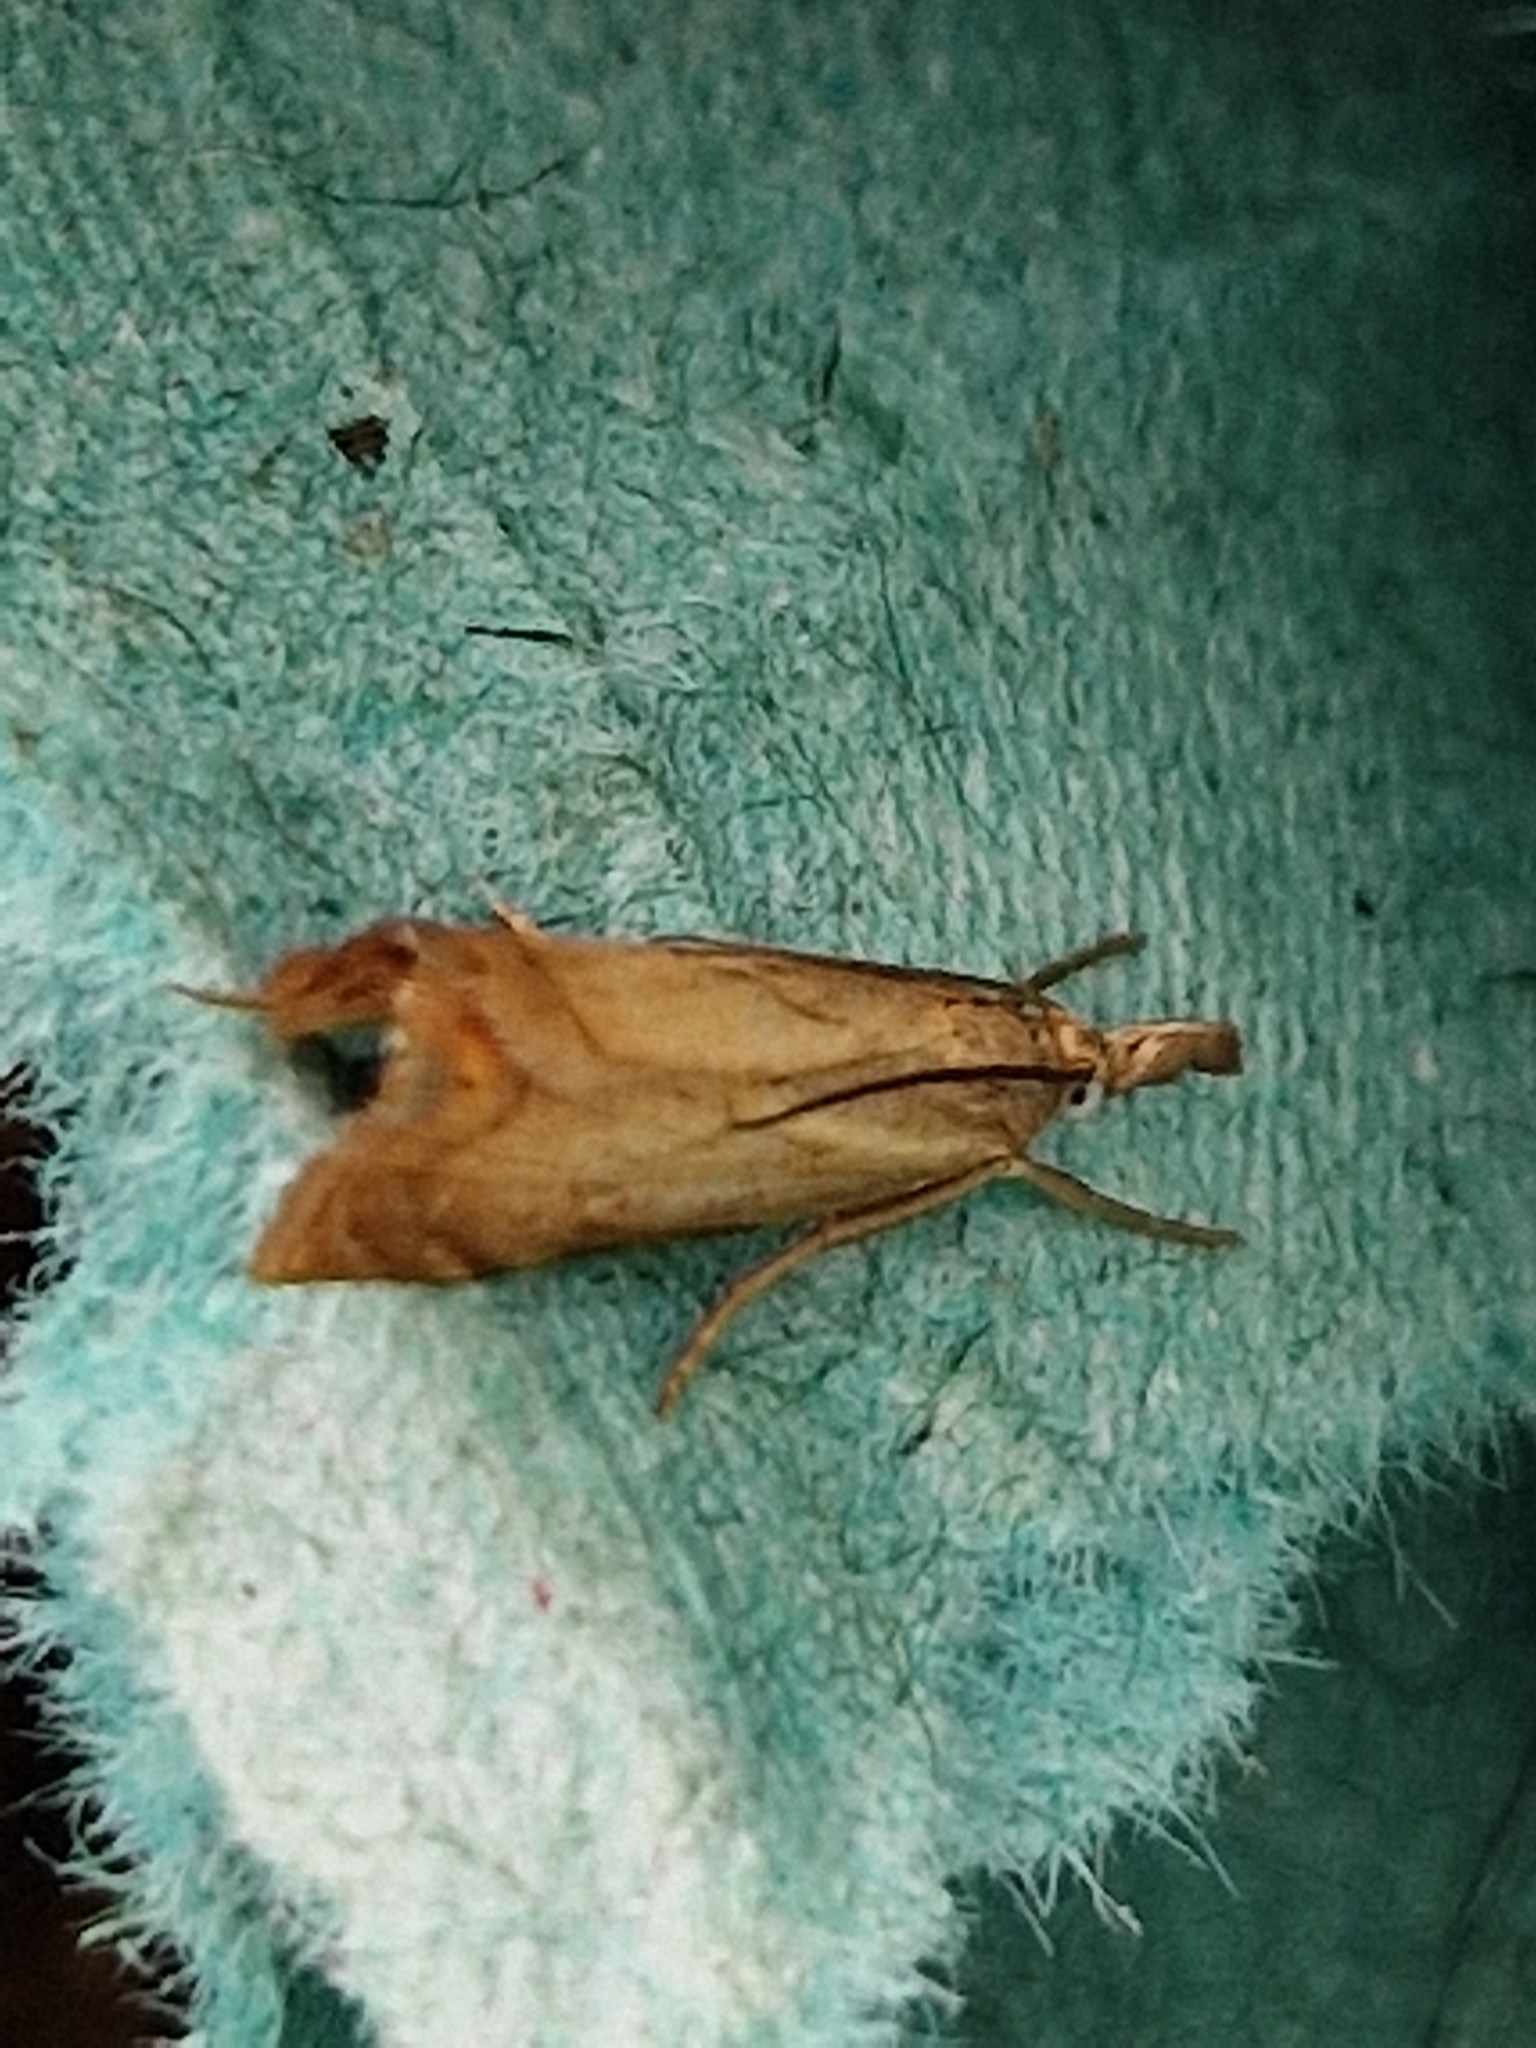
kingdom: Animalia
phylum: Arthropoda
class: Insecta
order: Lepidoptera
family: Crambidae
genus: Chrysoteuchia
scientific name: Chrysoteuchia culmella
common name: Garden grass-veneer
